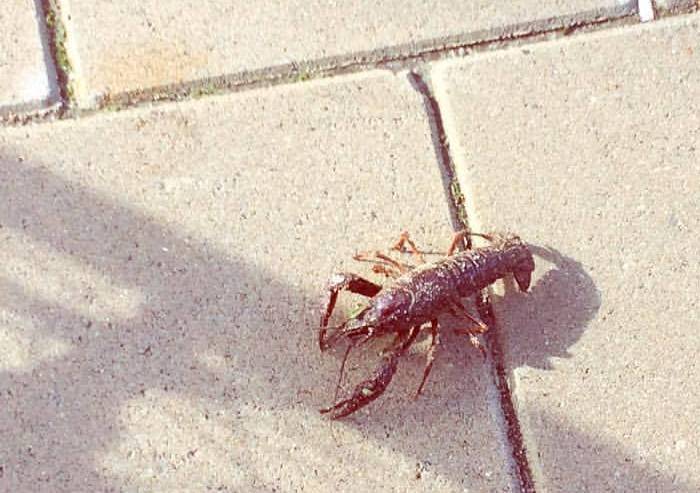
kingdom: Animalia
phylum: Arthropoda
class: Malacostraca
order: Decapoda
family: Cambaridae
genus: Procambarus
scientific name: Procambarus clarkii
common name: Red swamp crayfish
